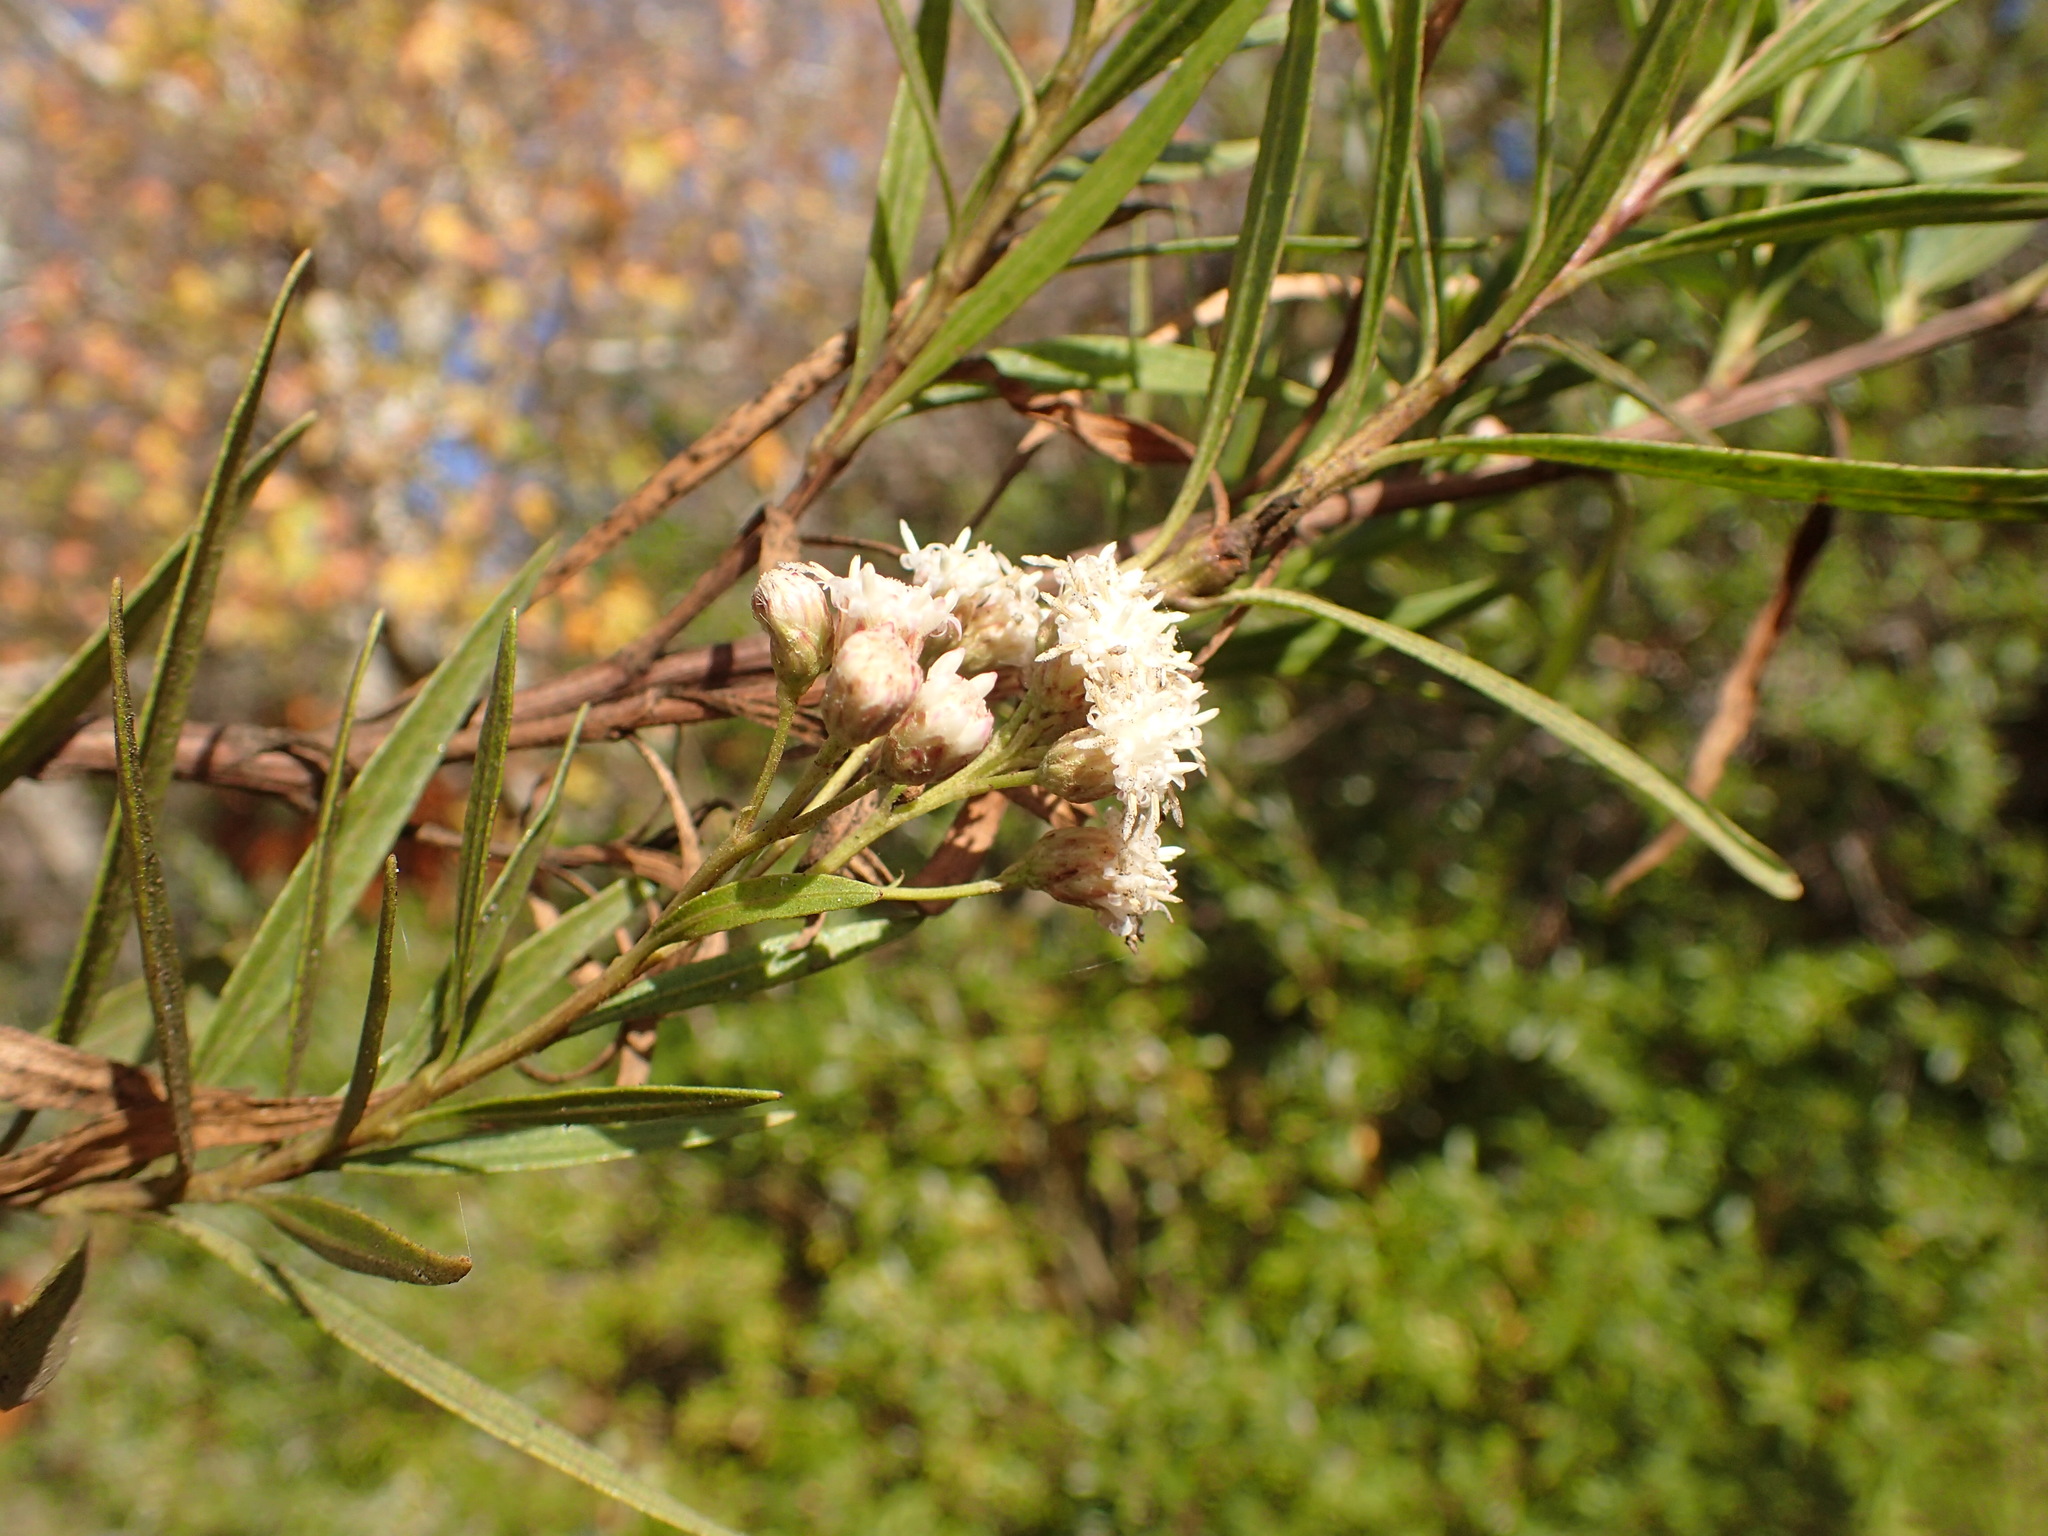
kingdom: Plantae
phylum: Tracheophyta
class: Magnoliopsida
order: Asterales
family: Asteraceae
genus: Baccharis
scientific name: Baccharis salicifolia
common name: Sticky baccharis
